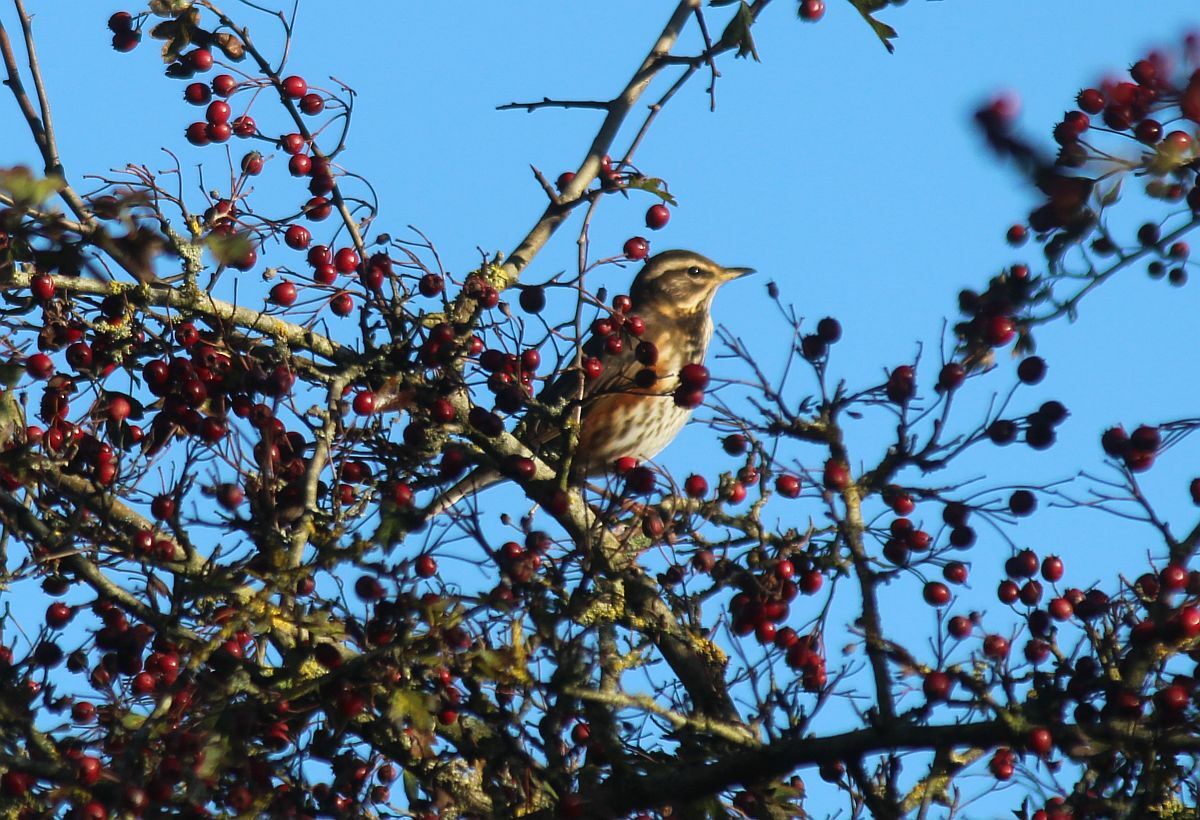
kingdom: Animalia
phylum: Chordata
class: Aves
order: Passeriformes
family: Turdidae
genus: Turdus
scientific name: Turdus iliacus
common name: Redwing
